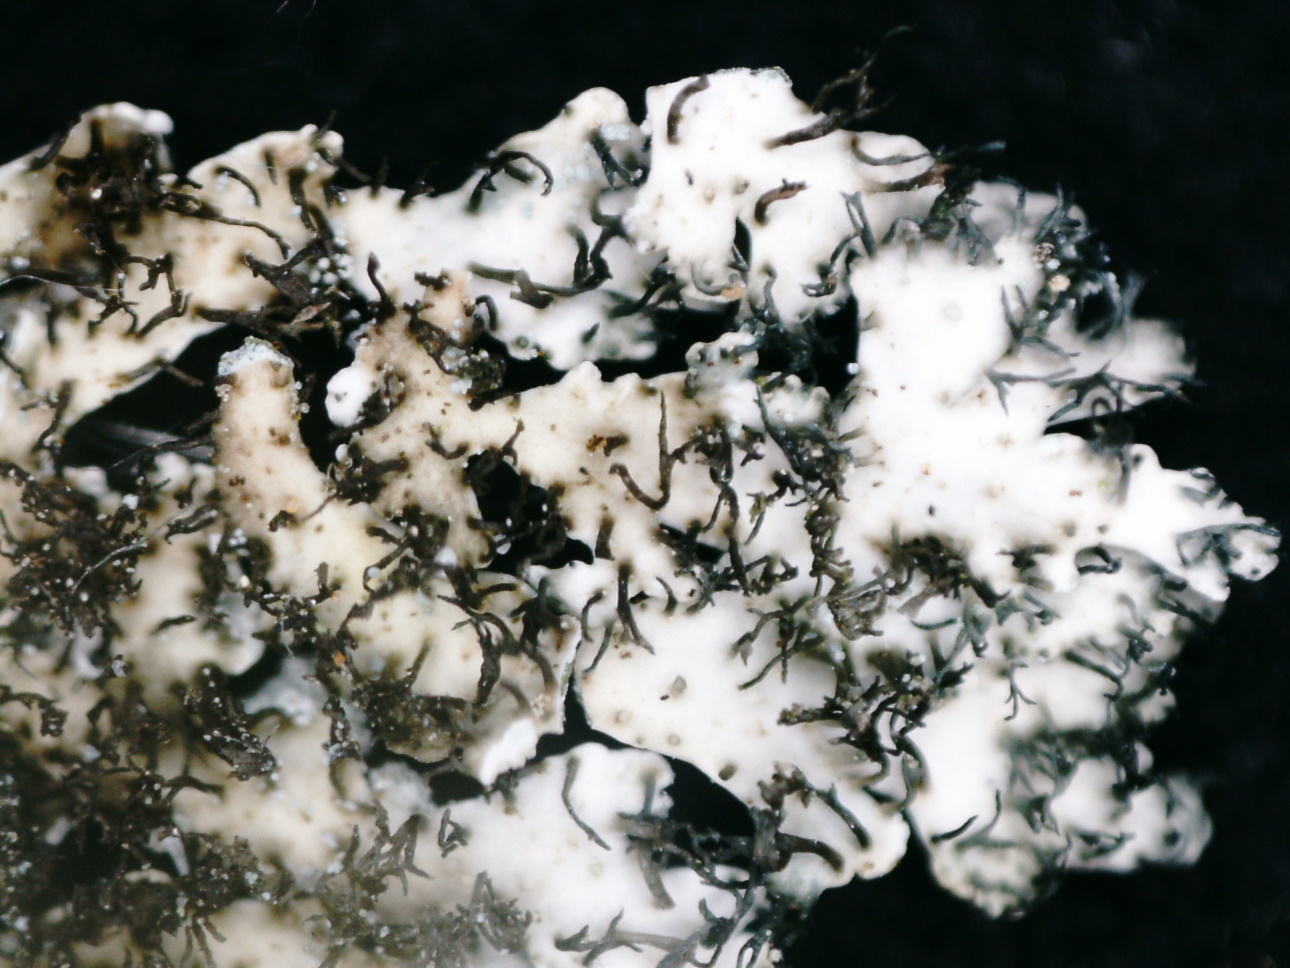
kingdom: Fungi
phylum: Ascomycota
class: Lecanoromycetes
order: Caliciales
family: Physciaceae
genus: Physcia
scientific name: Physcia caesia
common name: Blue-gray rosette lichen
